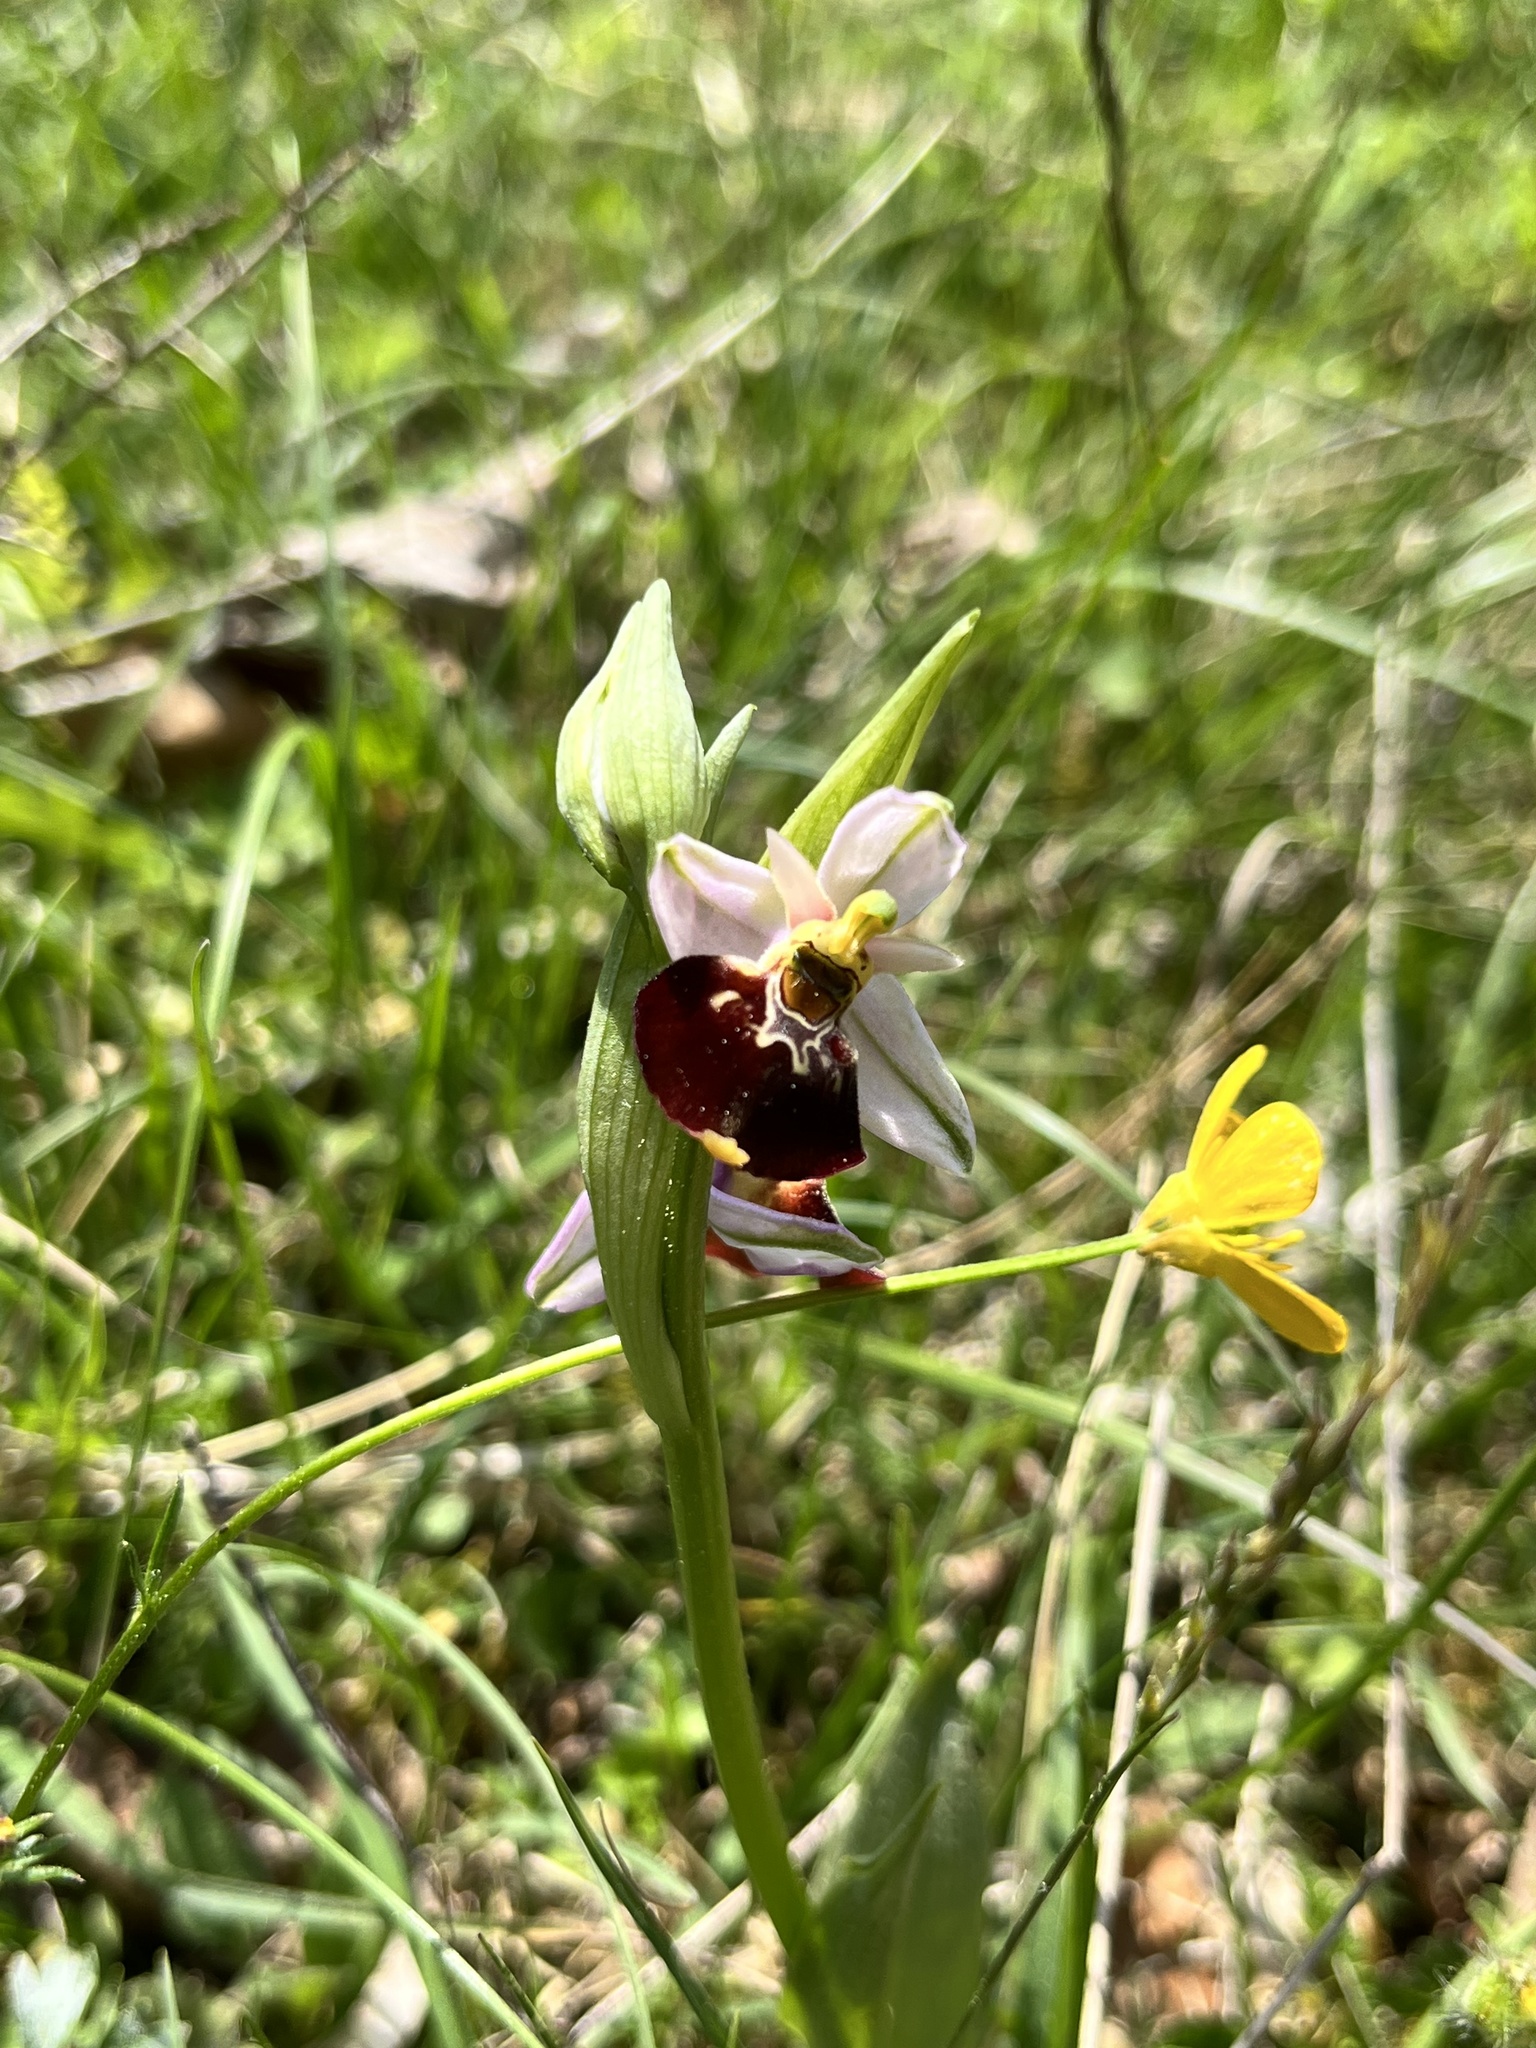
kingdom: Plantae
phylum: Tracheophyta
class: Liliopsida
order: Asparagales
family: Orchidaceae
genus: Ophrys
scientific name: Ophrys holosericea
